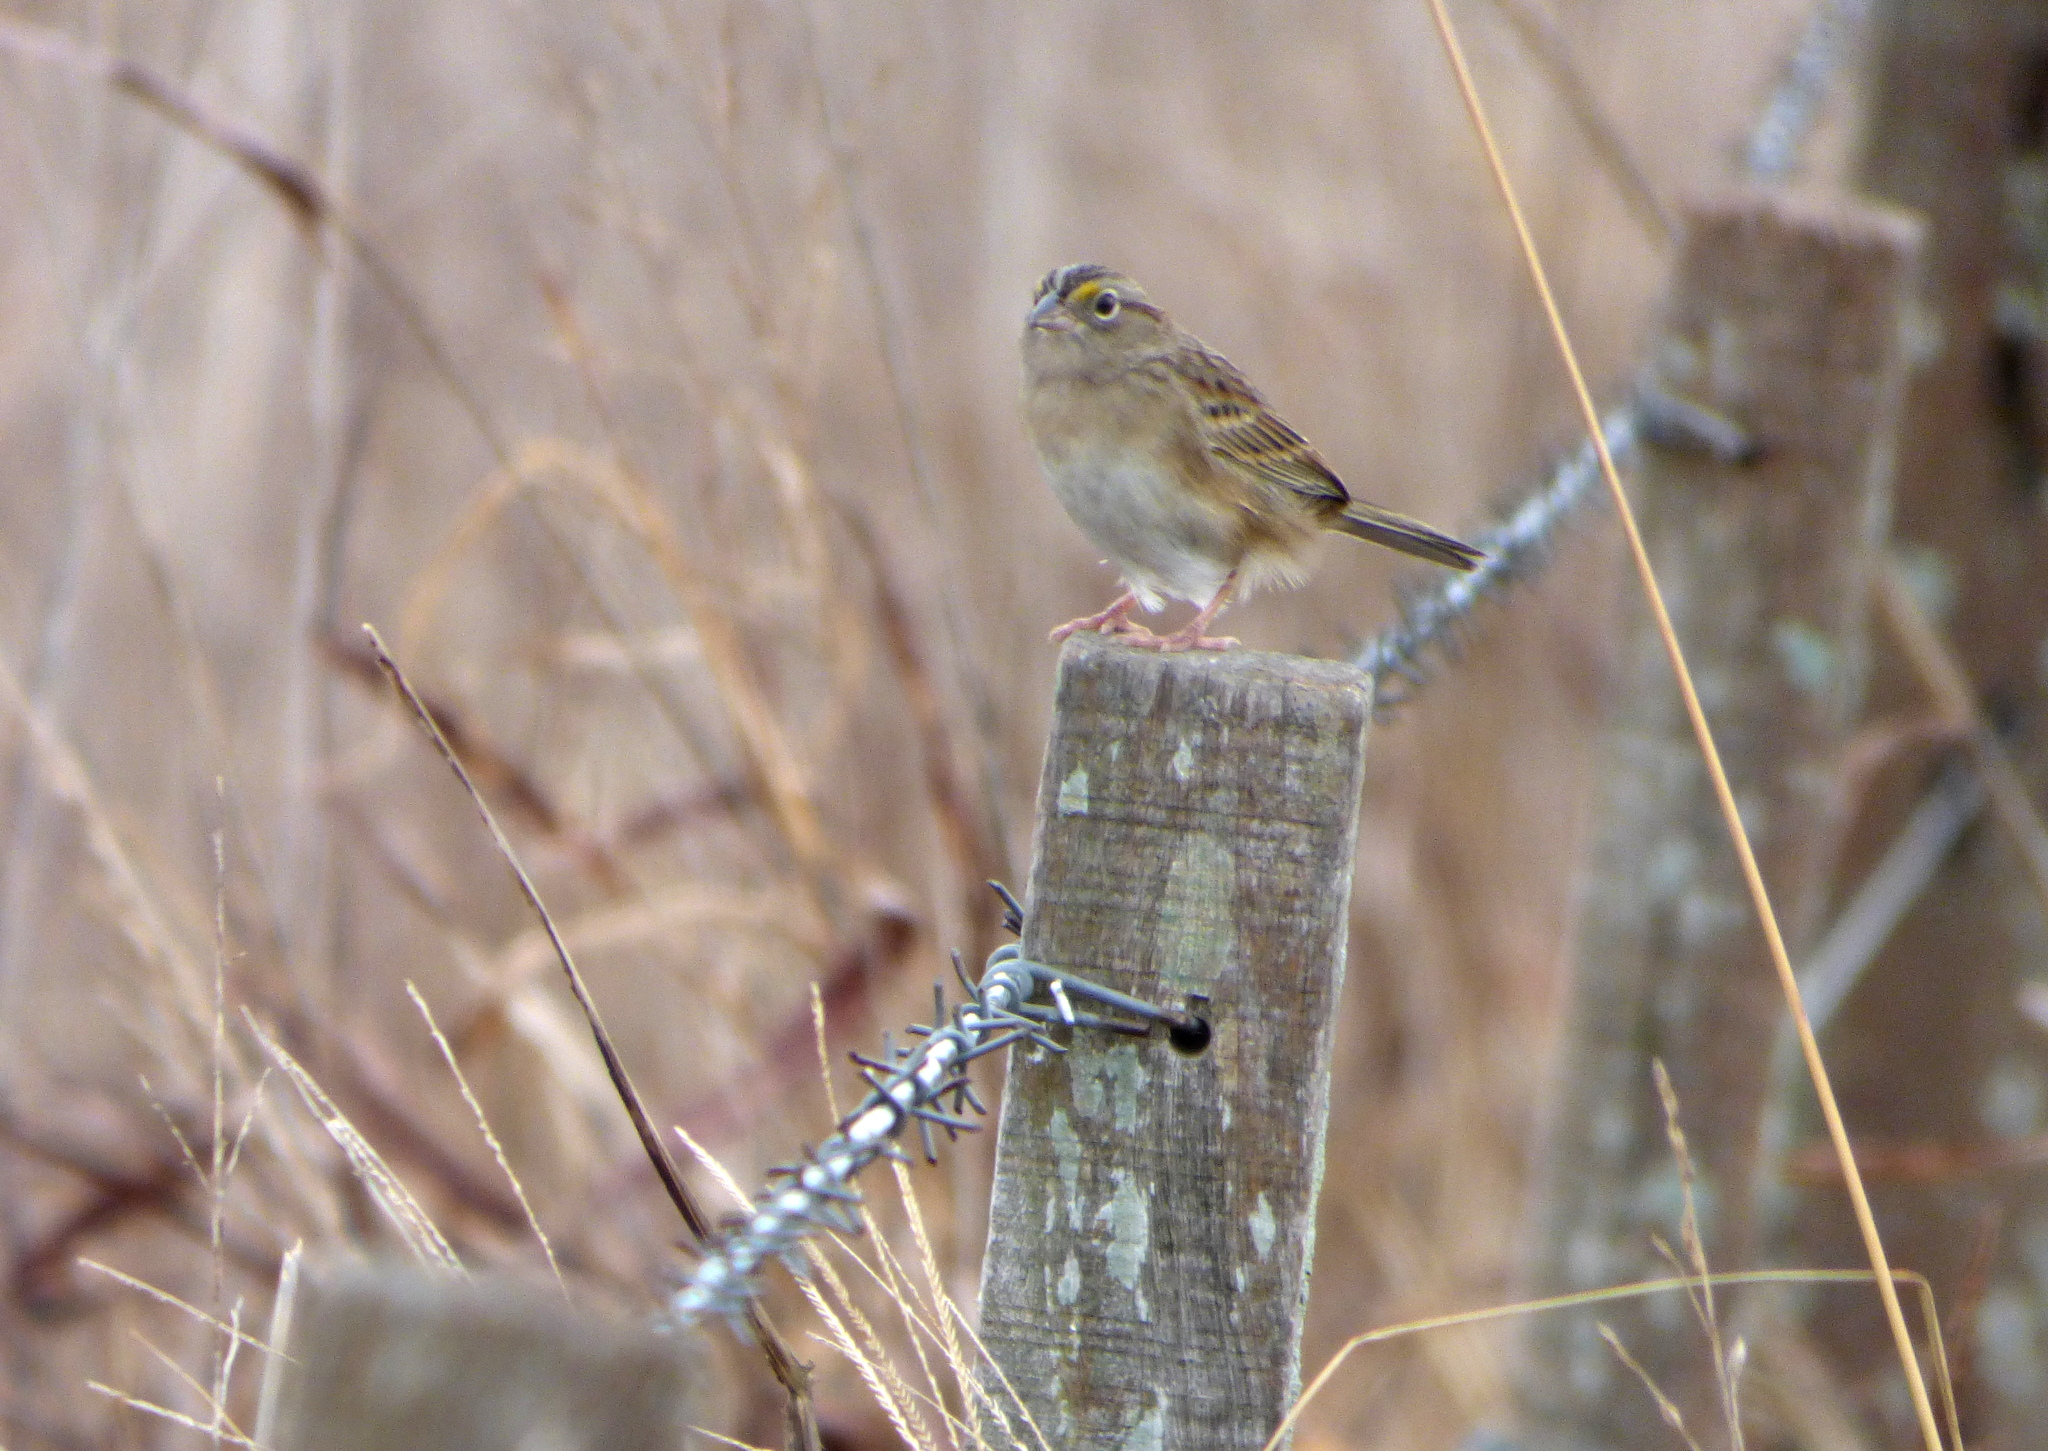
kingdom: Animalia
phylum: Chordata
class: Aves
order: Passeriformes
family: Passerellidae
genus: Ammodramus
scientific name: Ammodramus humeralis
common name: Grassland sparrow
